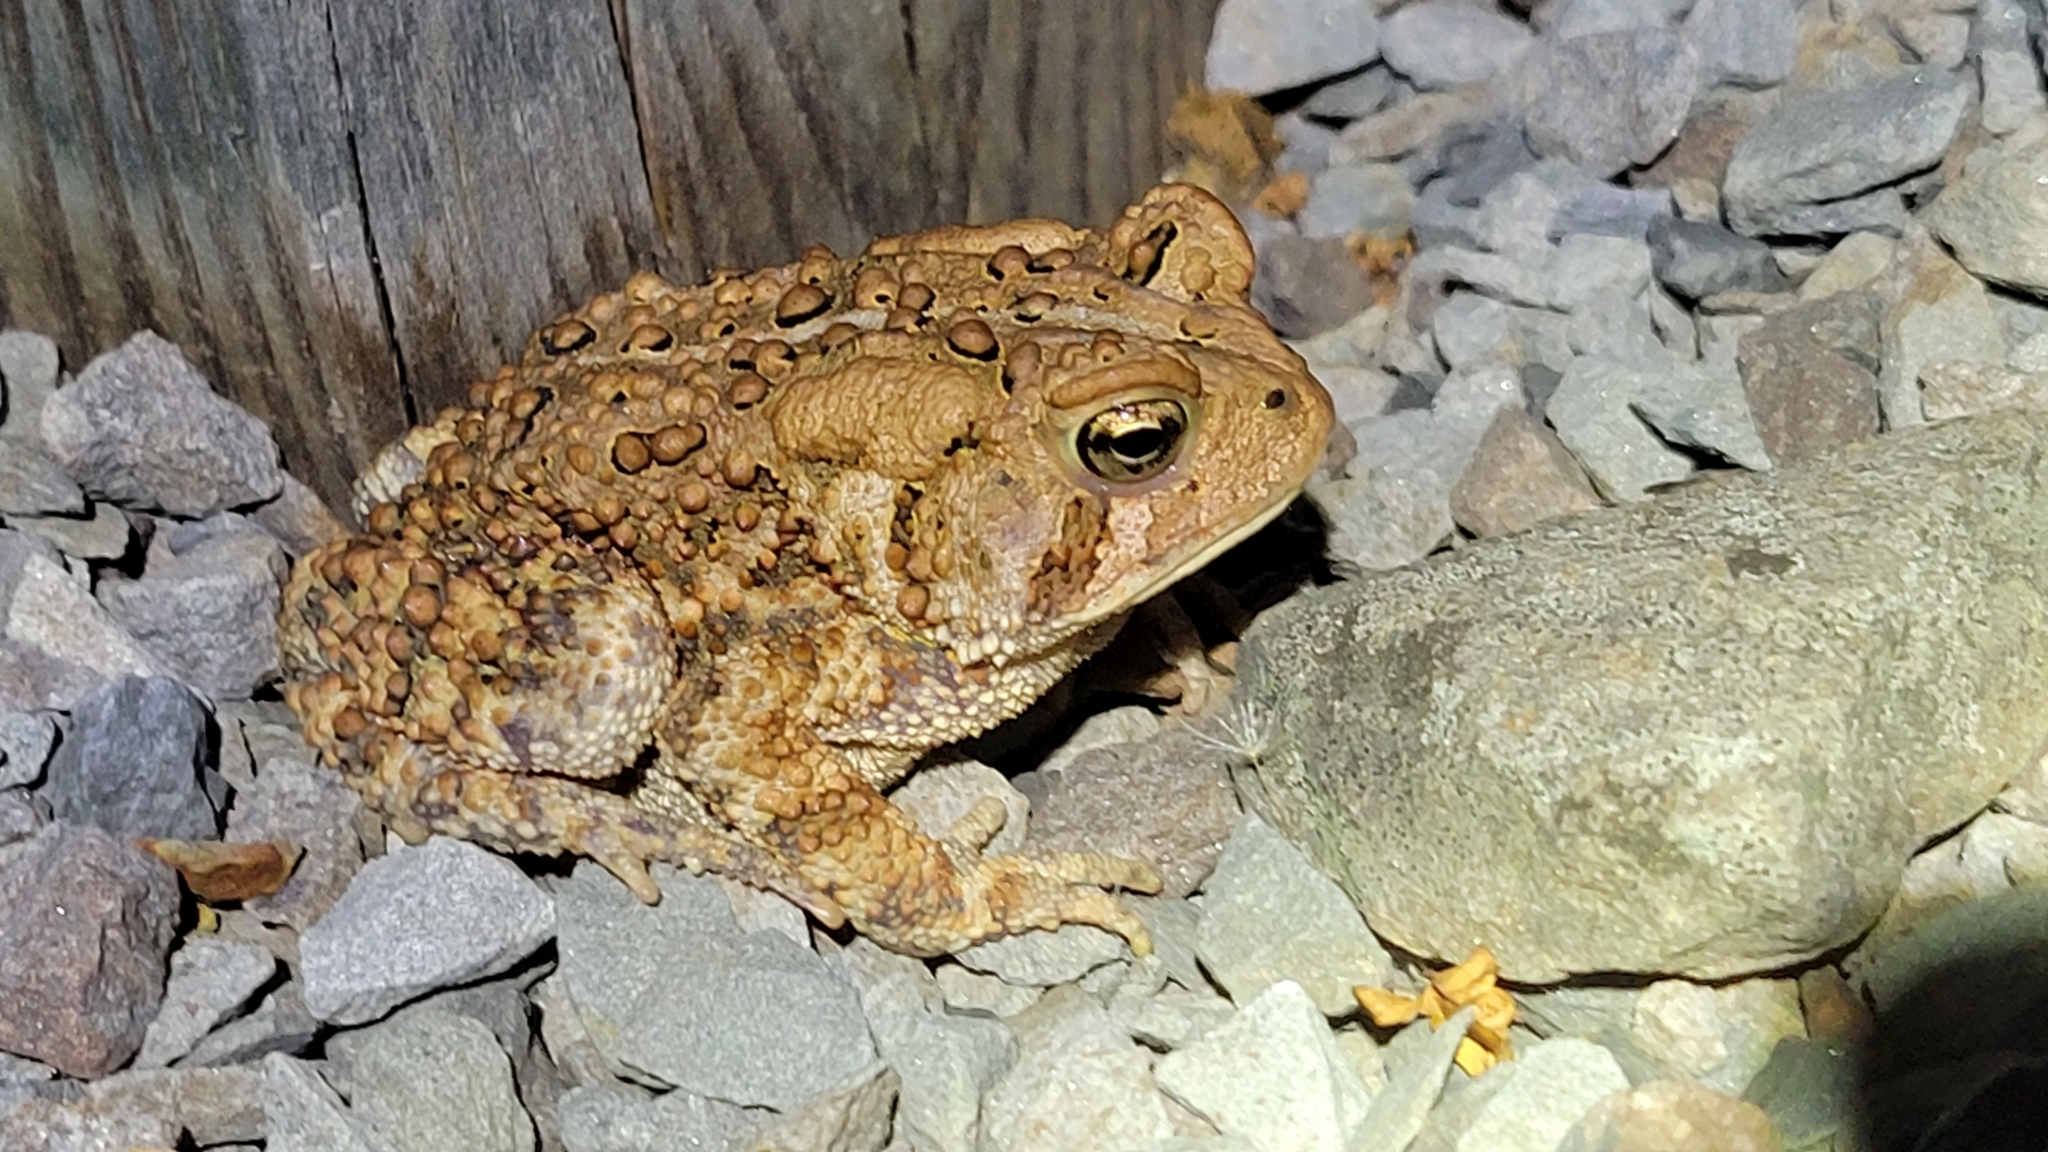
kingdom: Animalia
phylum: Chordata
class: Amphibia
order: Anura
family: Bufonidae
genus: Anaxyrus
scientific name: Anaxyrus americanus
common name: American toad
